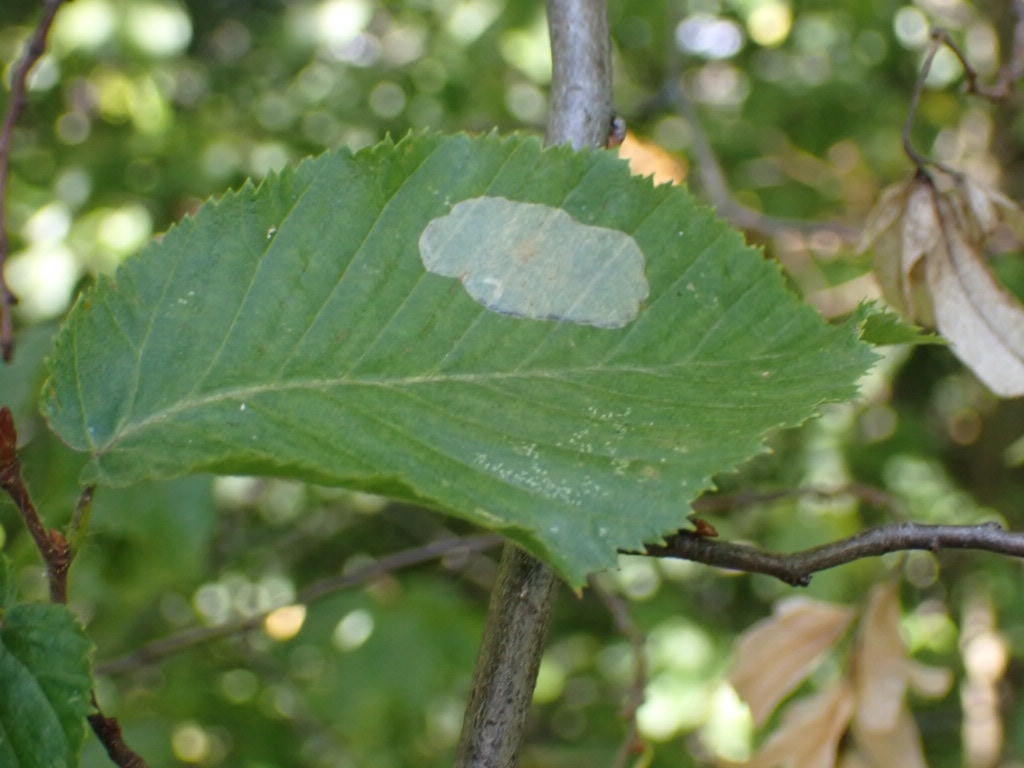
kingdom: Animalia
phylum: Arthropoda
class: Insecta
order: Lepidoptera
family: Gracillariidae
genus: Phyllonorycter
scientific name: Phyllonorycter esperella
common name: Dark hornbeam midget
